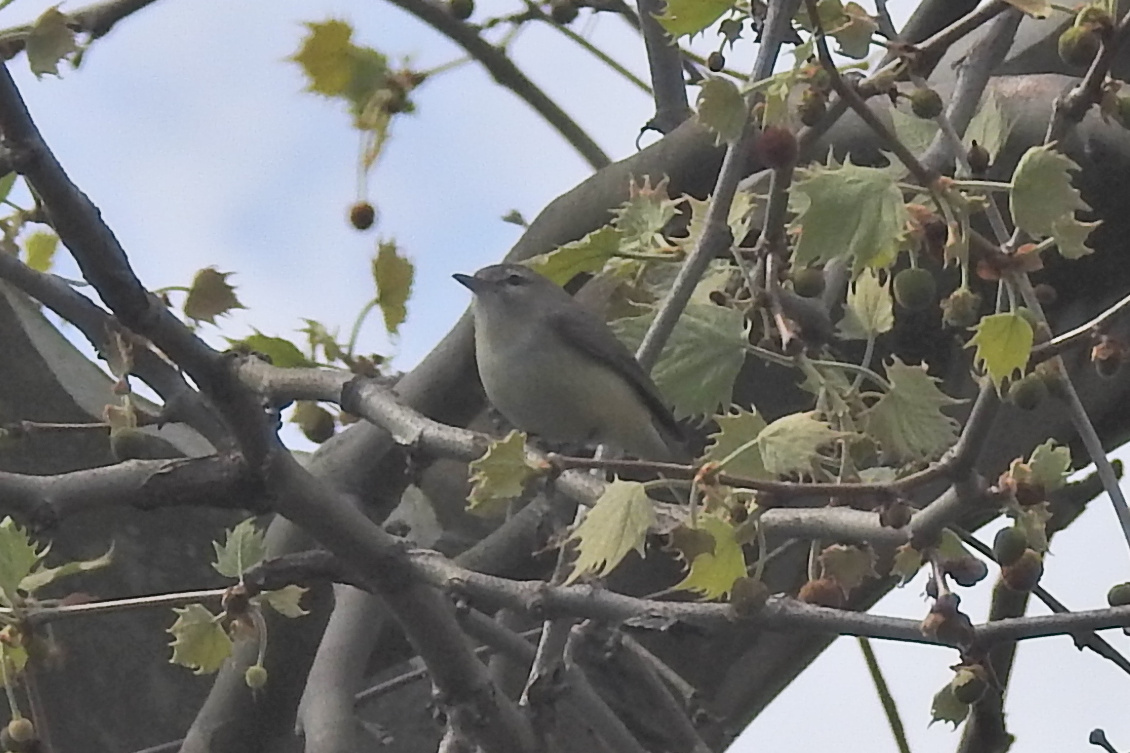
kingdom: Animalia
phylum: Chordata
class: Aves
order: Passeriformes
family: Vireonidae
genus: Vireo
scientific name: Vireo gilvus
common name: Warbling vireo
